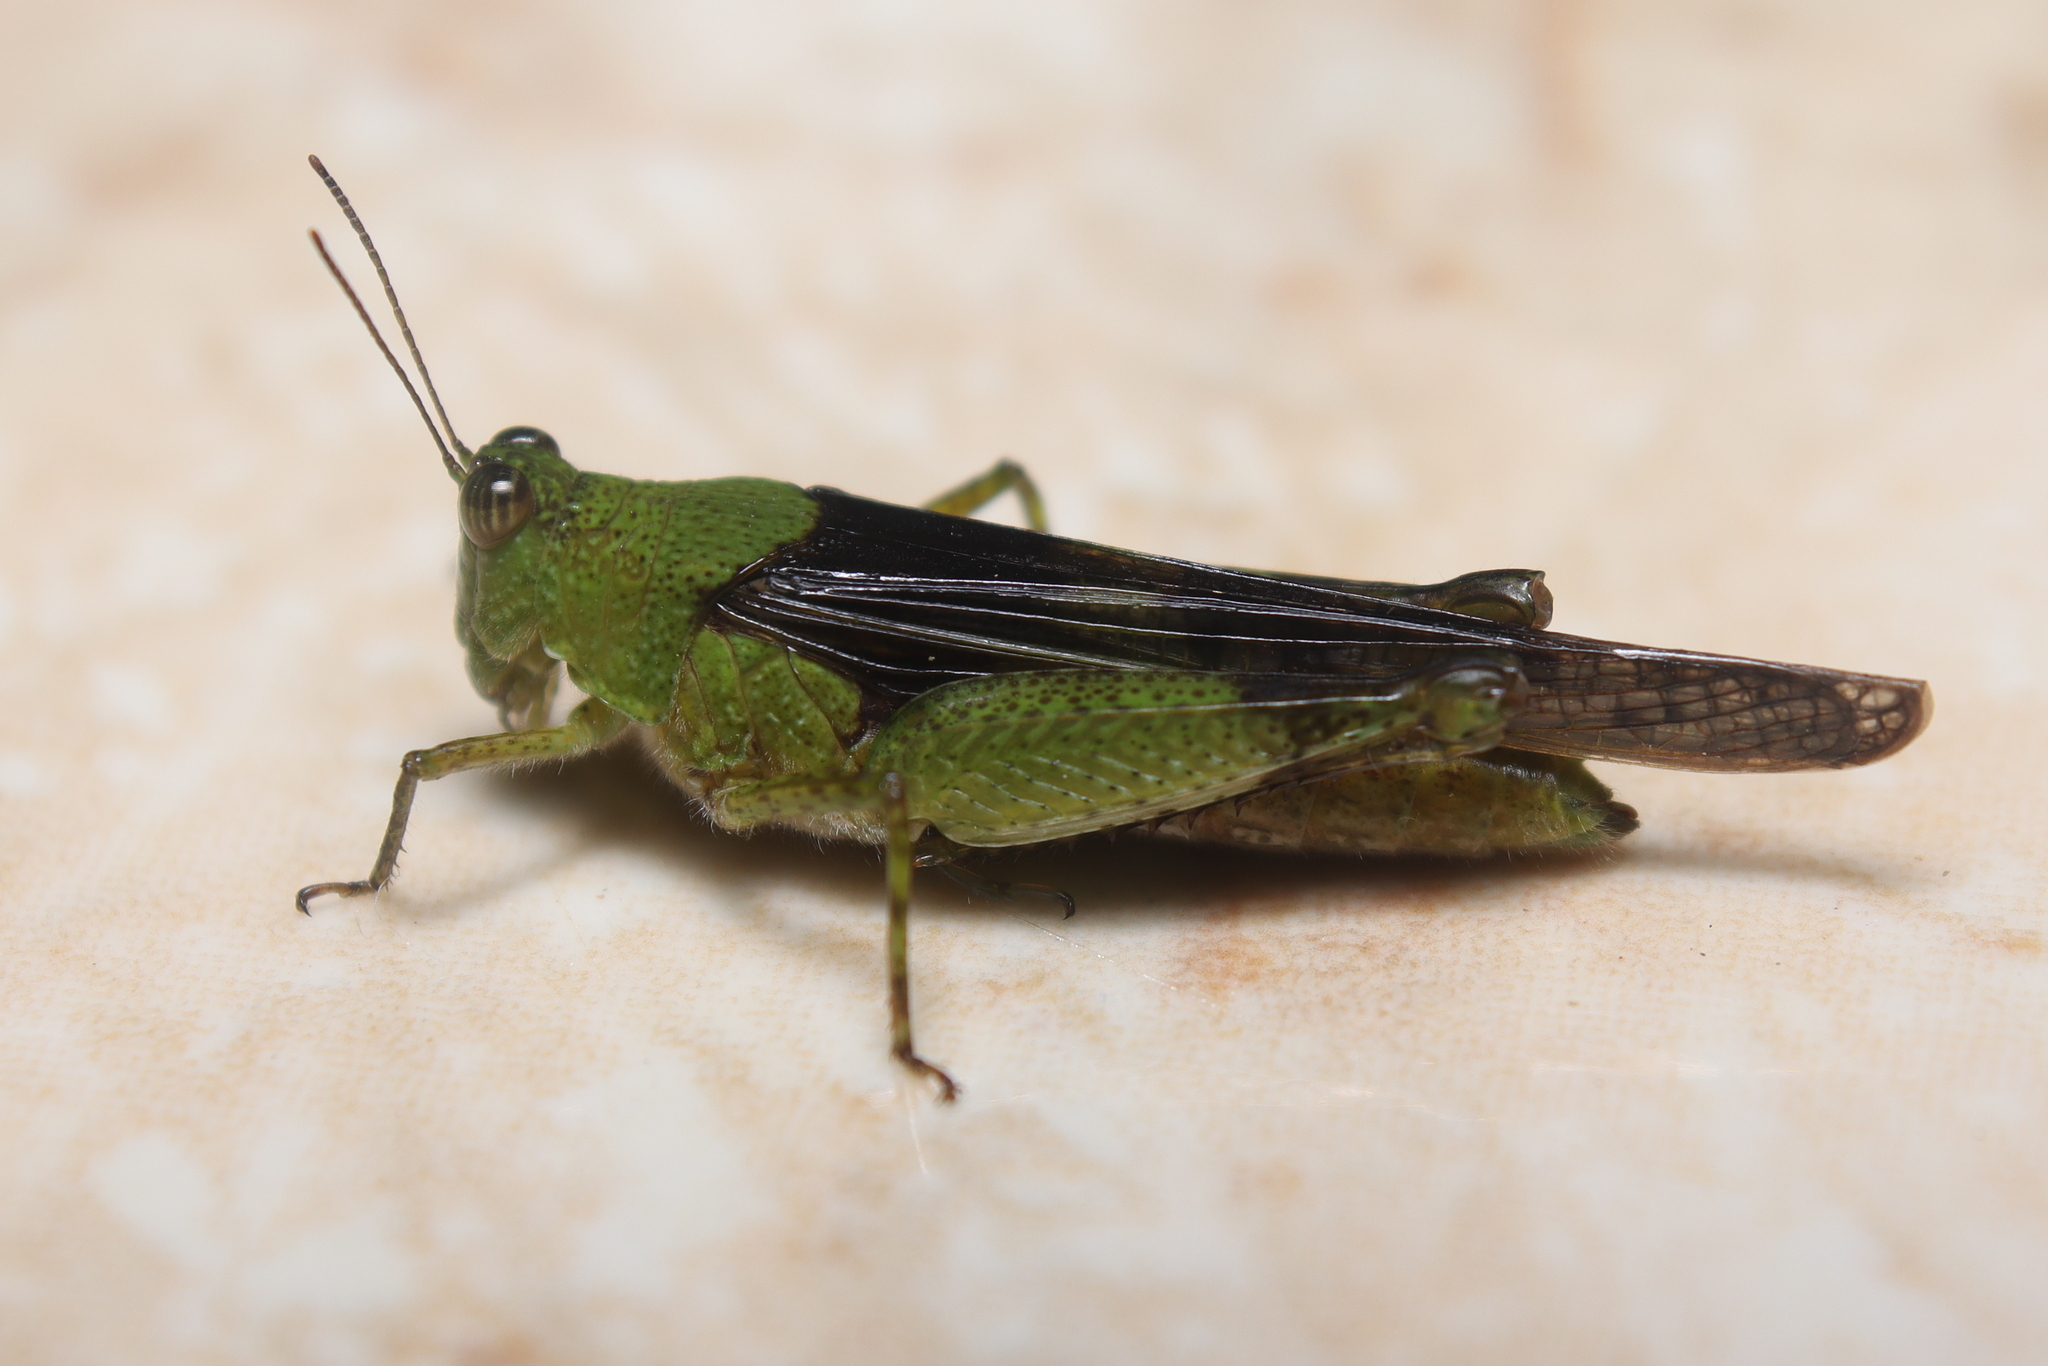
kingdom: Animalia
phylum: Arthropoda
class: Insecta
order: Orthoptera
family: Acrididae
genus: Paulinia
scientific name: Paulinia acuminata
